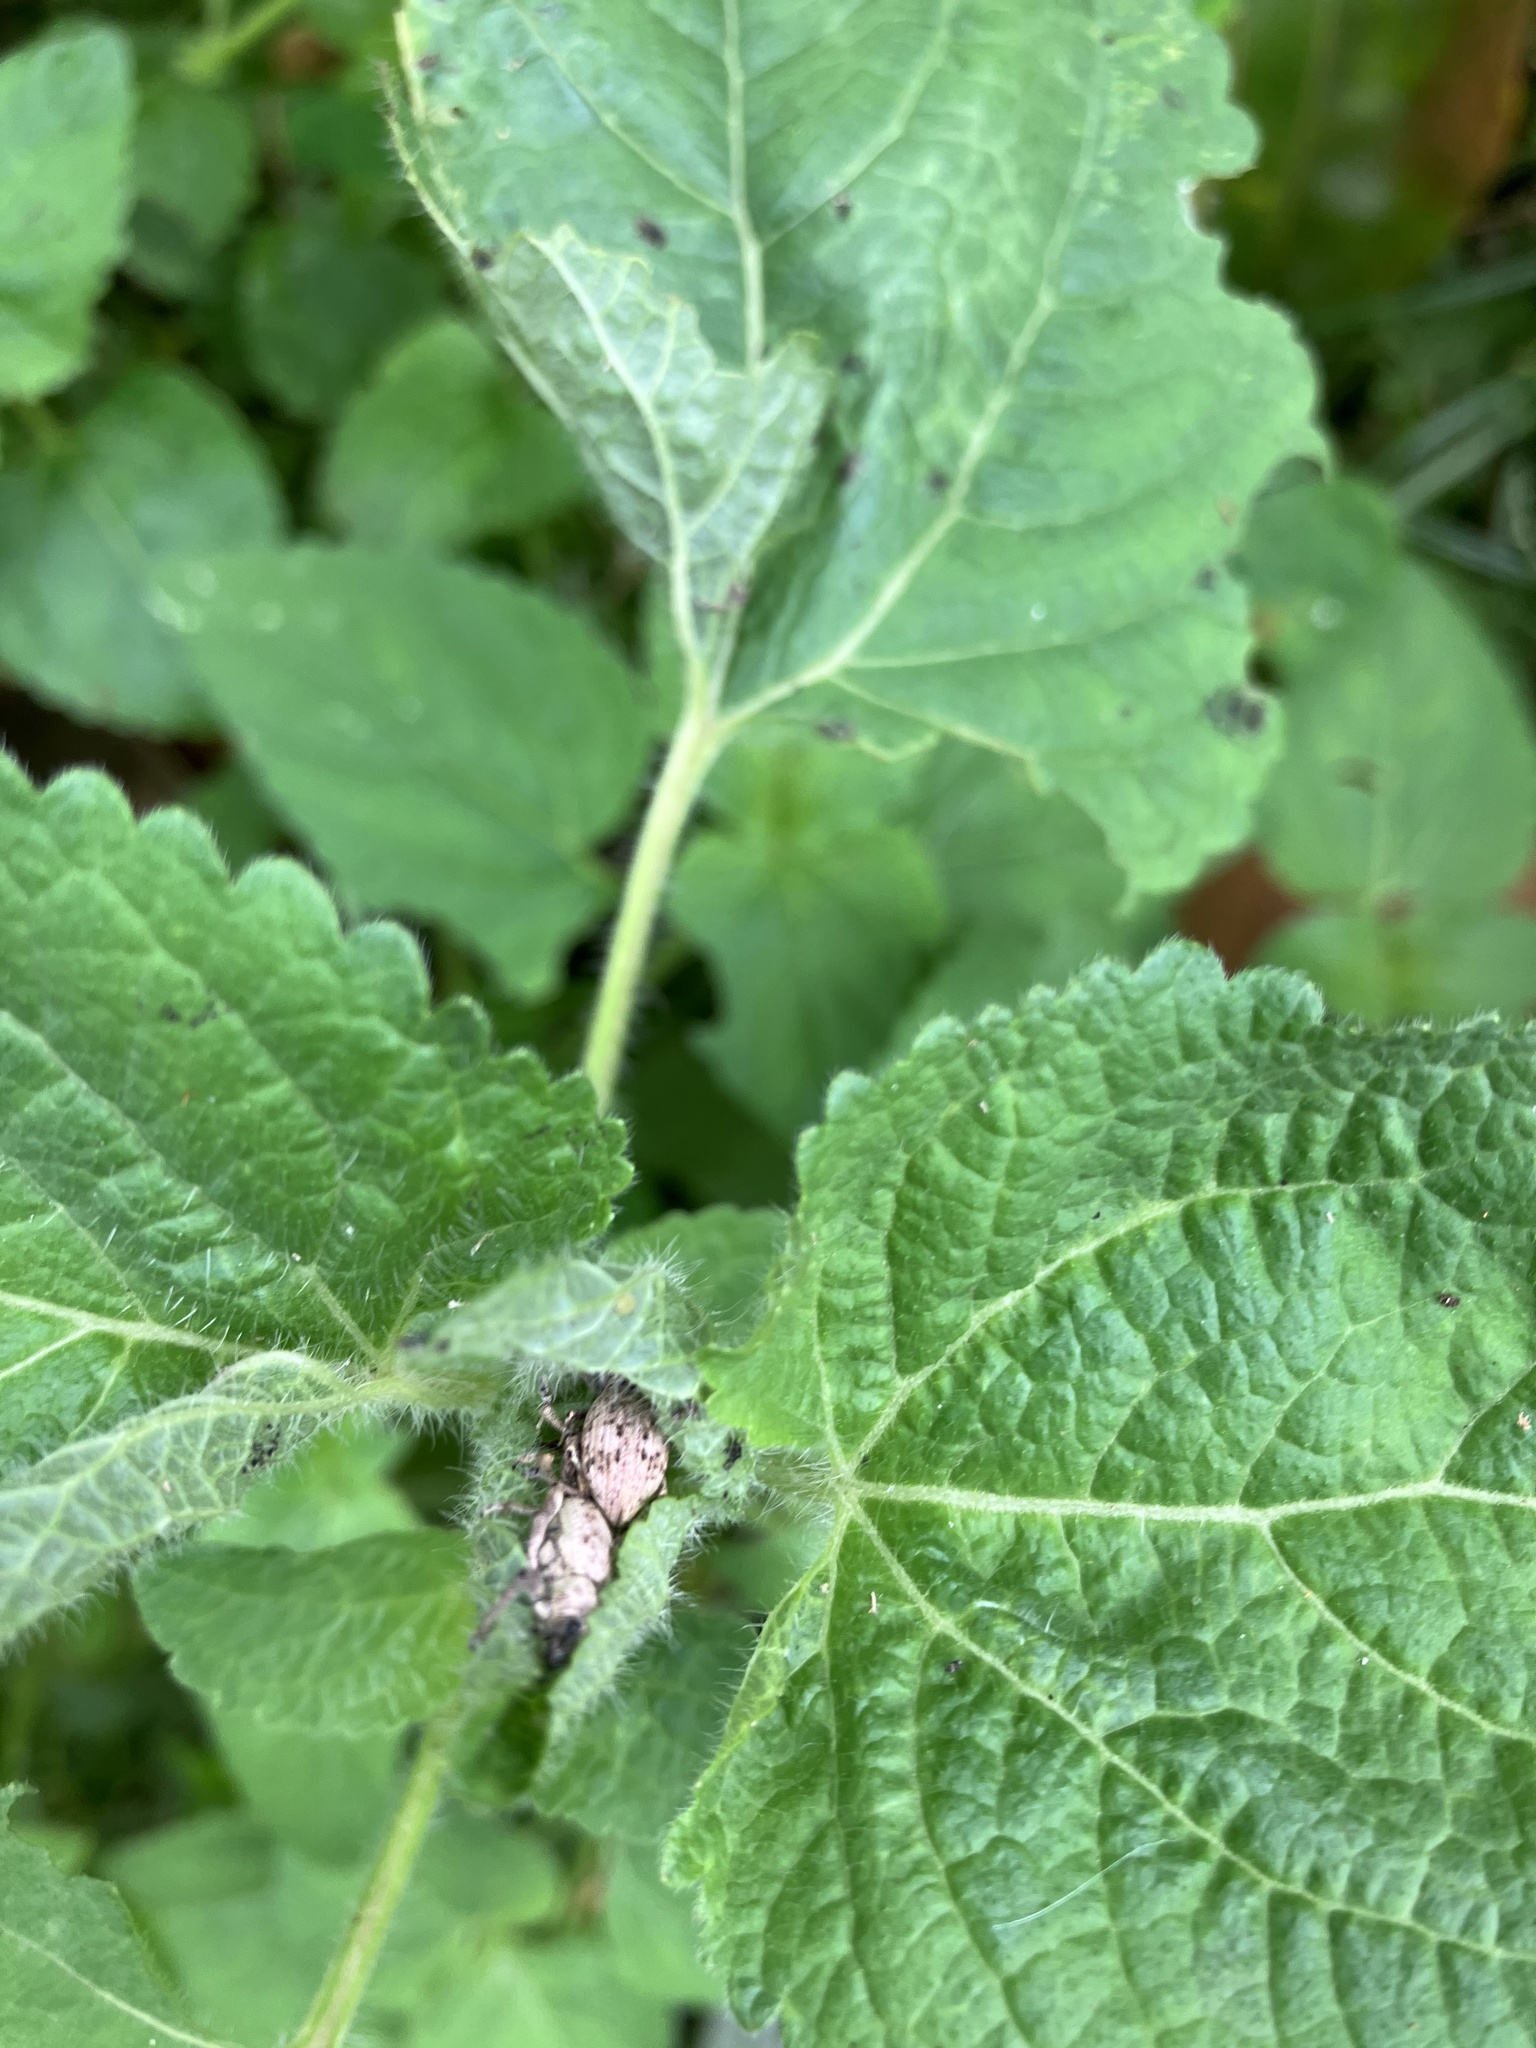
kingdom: Animalia
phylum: Arthropoda
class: Insecta
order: Coleoptera
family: Curculionidae
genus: Sympiezomias
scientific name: Sympiezomias cribricollis
